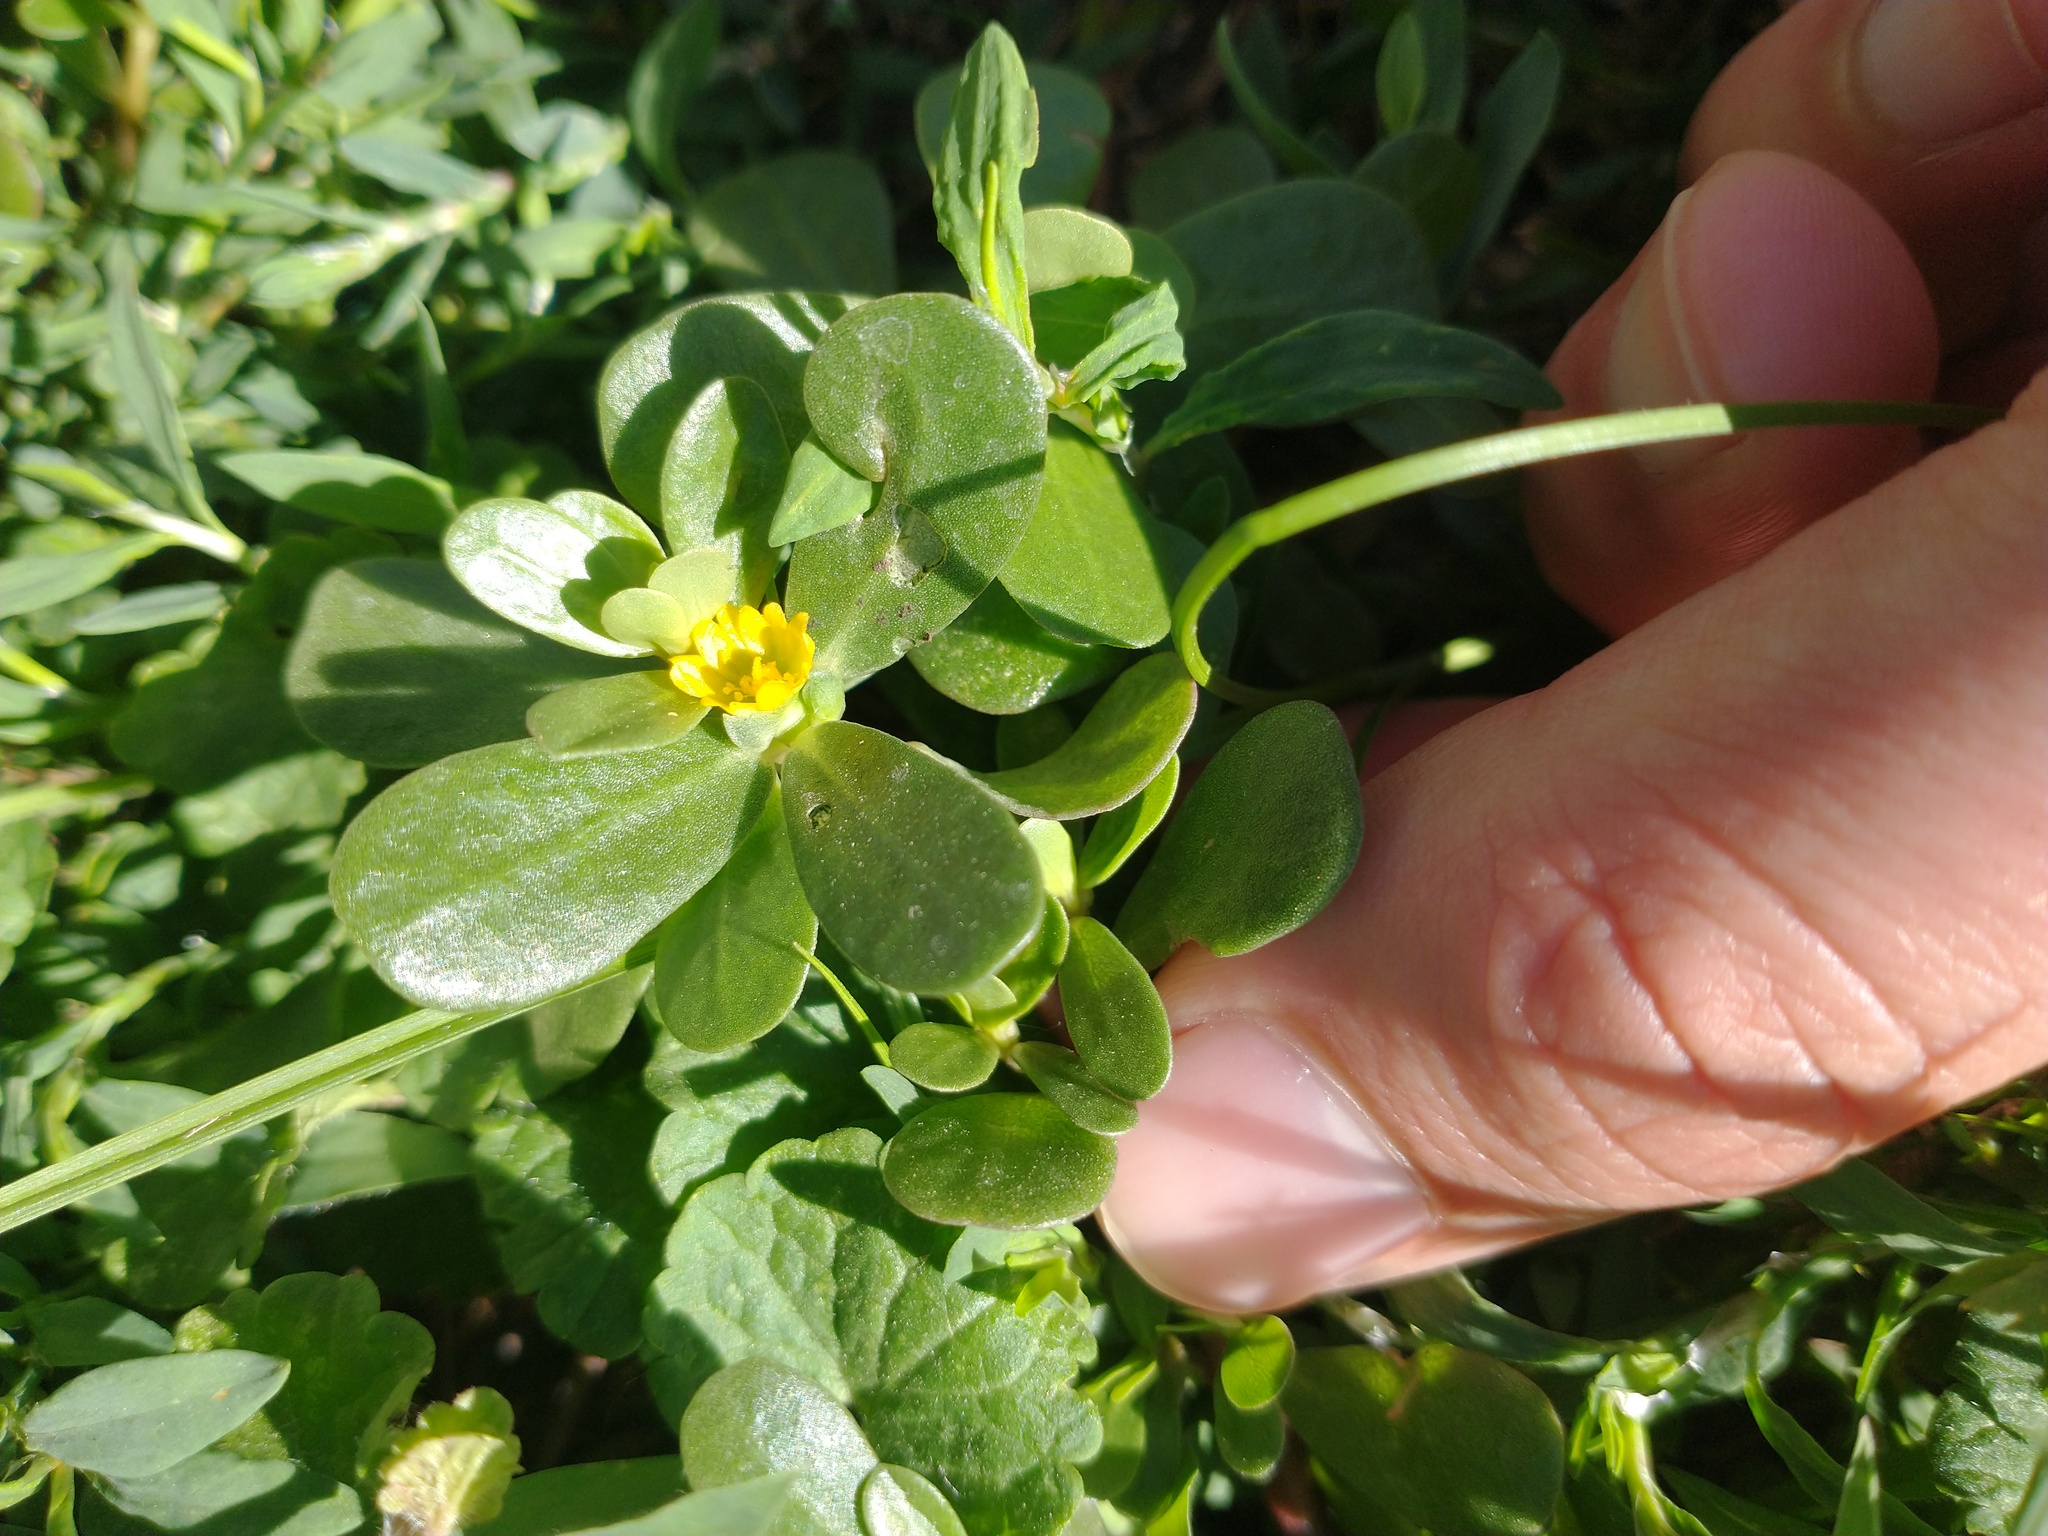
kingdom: Plantae
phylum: Tracheophyta
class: Magnoliopsida
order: Caryophyllales
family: Portulacaceae
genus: Portulaca
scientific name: Portulaca oleracea
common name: Common purslane
